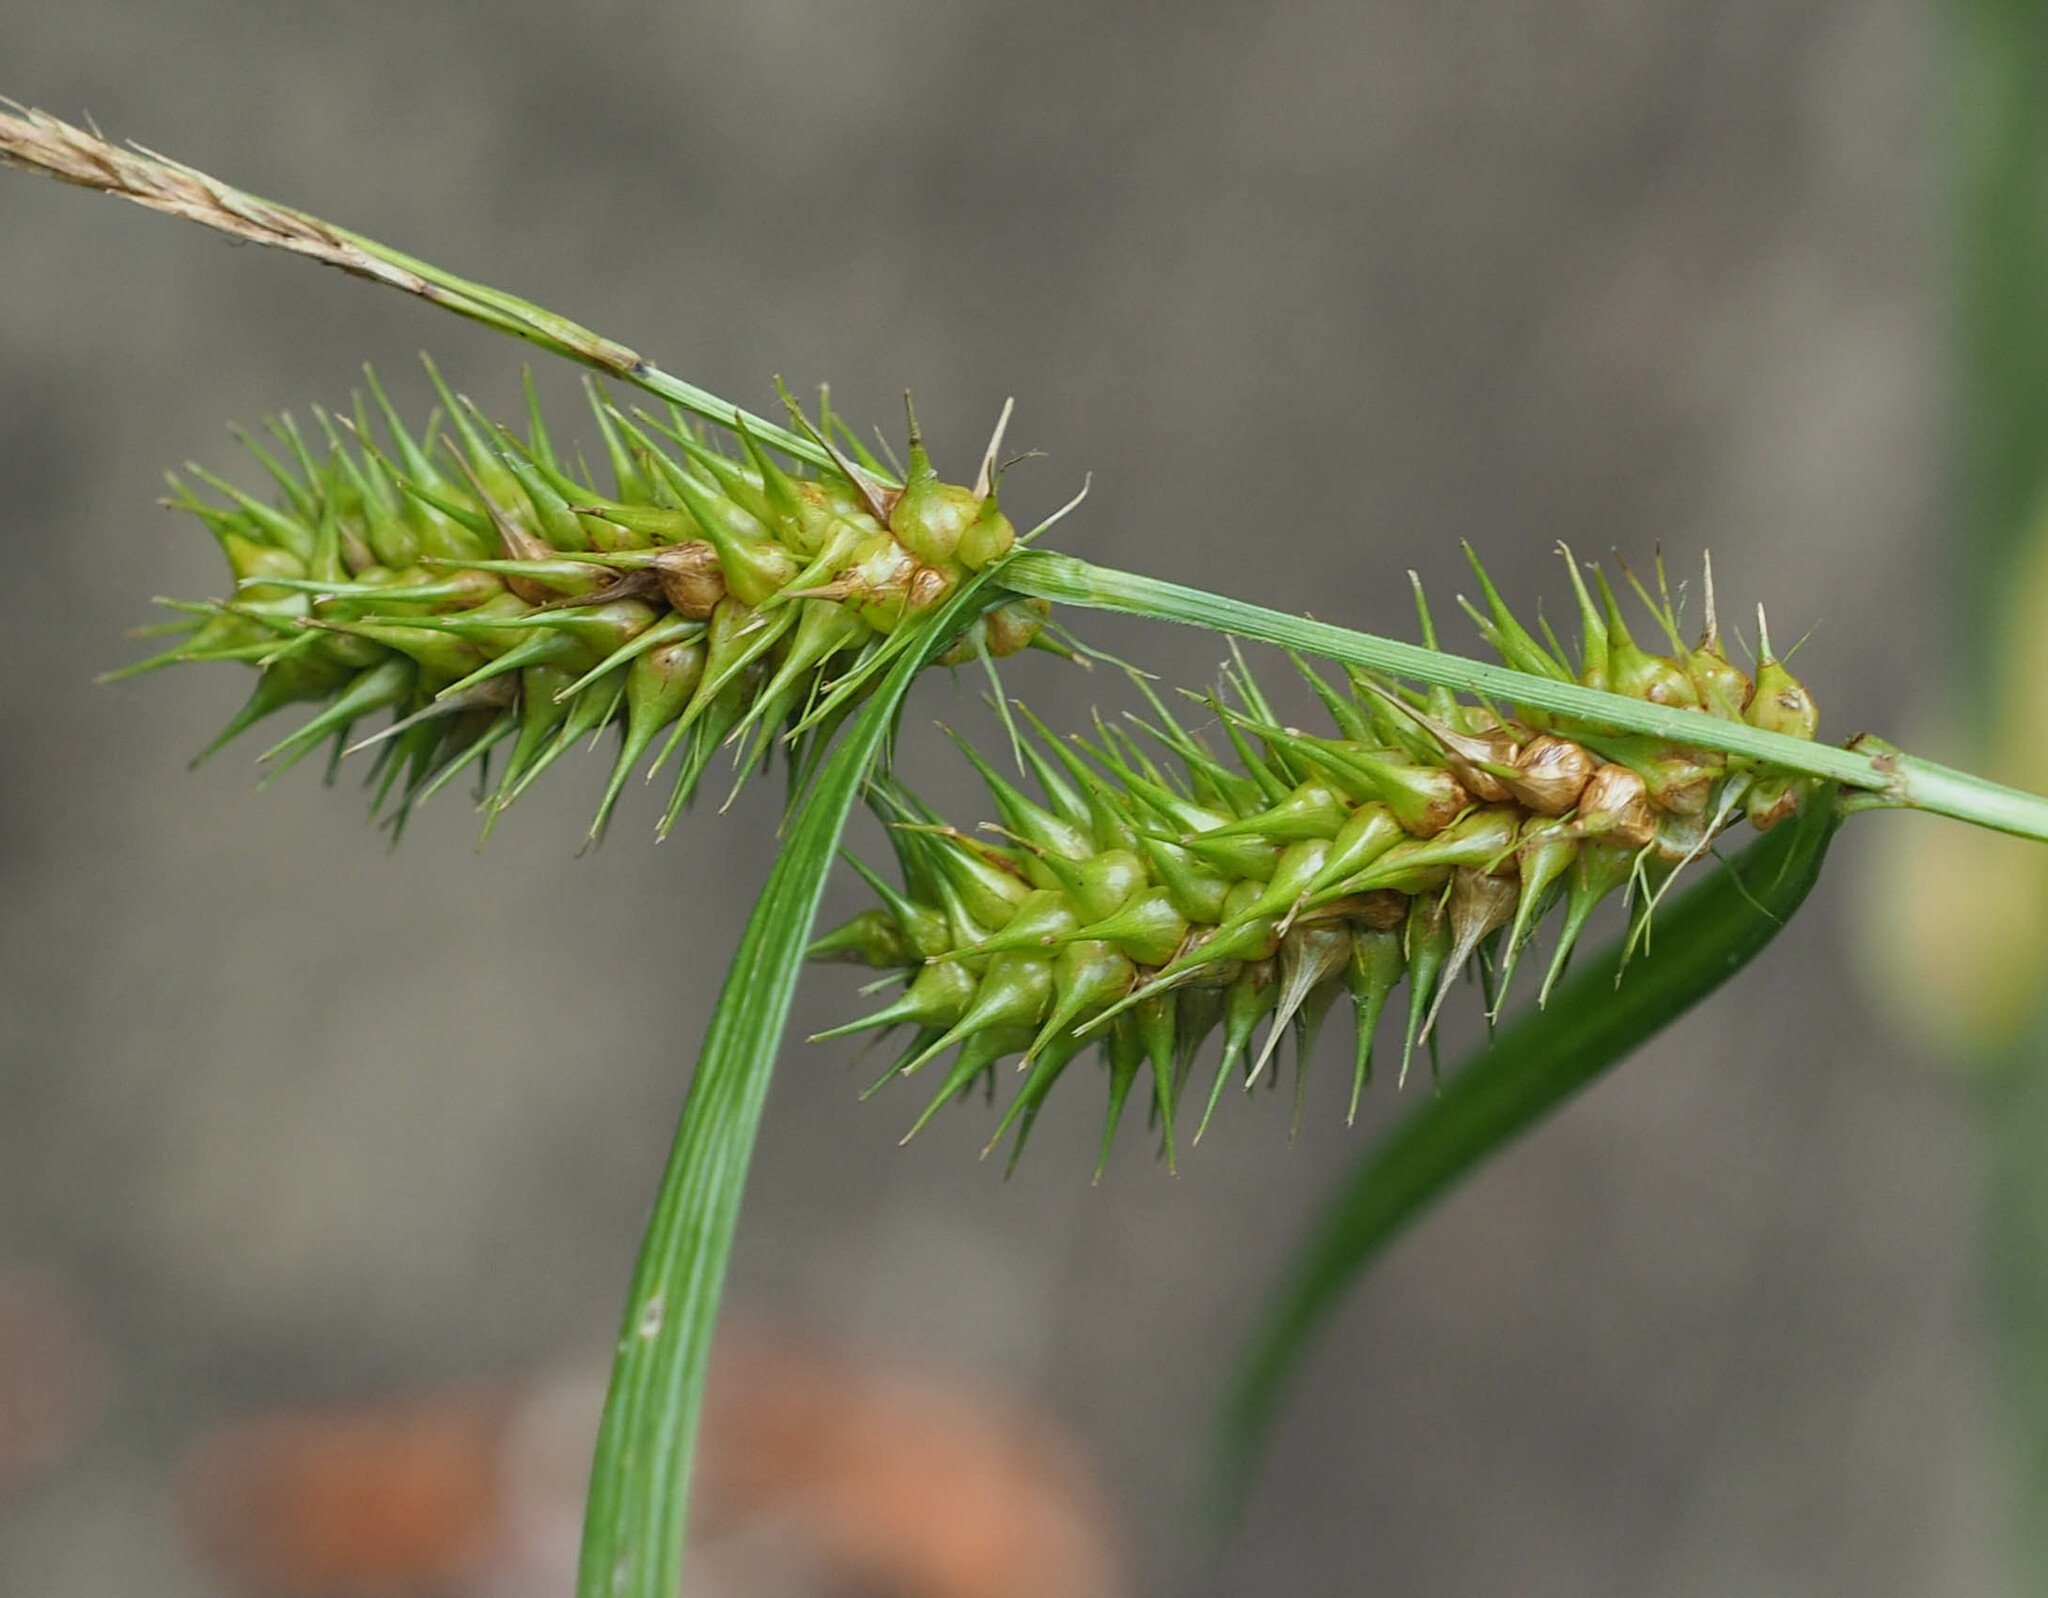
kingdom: Plantae
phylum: Tracheophyta
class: Liliopsida
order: Poales
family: Cyperaceae
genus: Carex
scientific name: Carex lurida
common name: Sallow sedge
